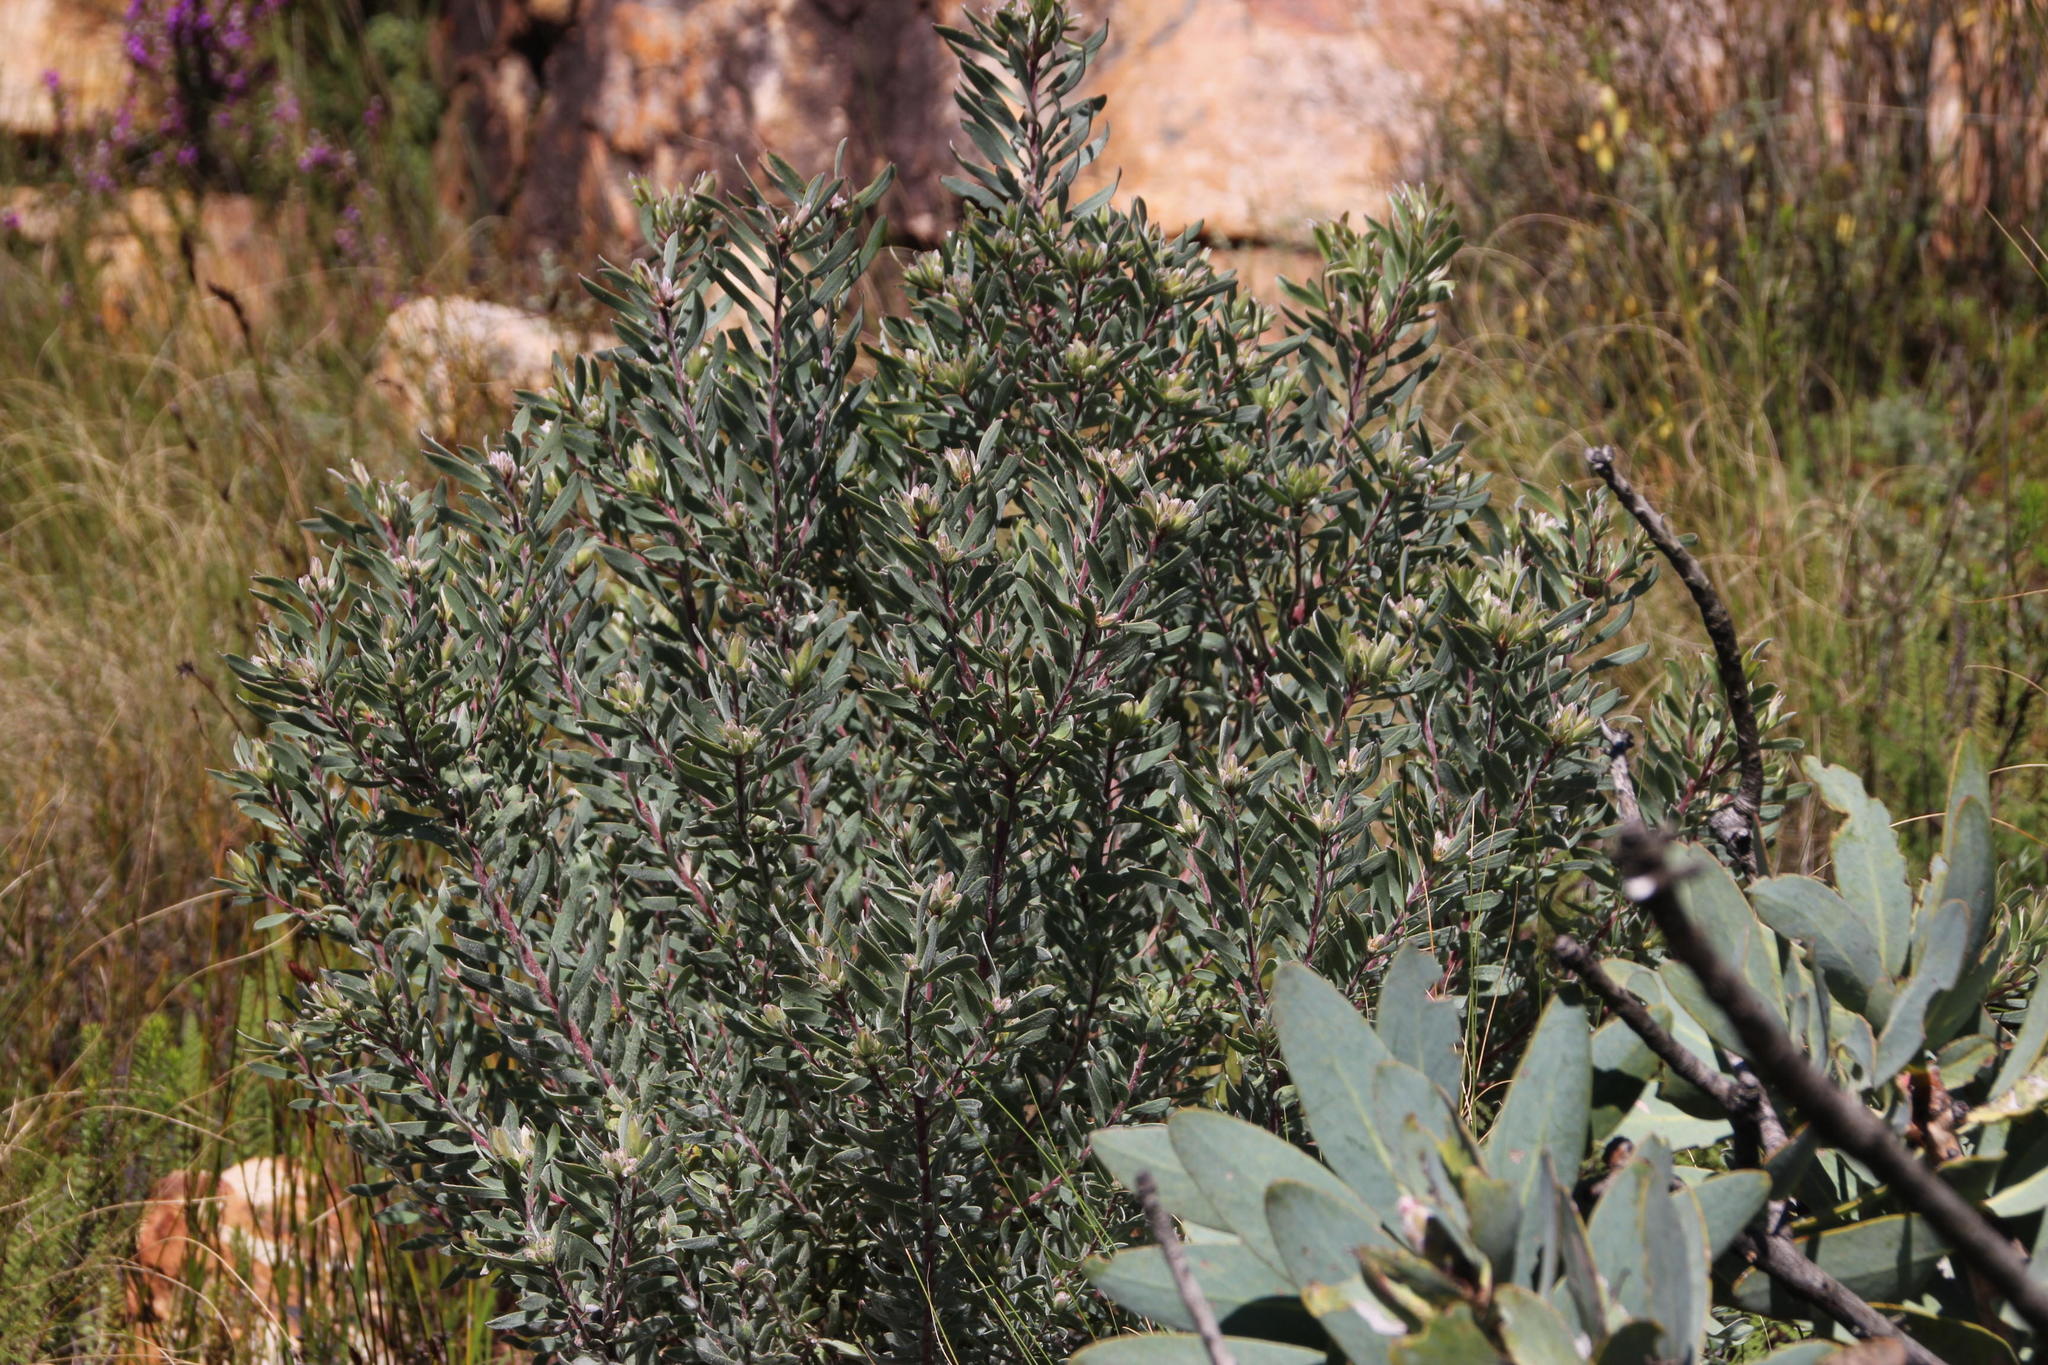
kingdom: Plantae
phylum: Tracheophyta
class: Magnoliopsida
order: Proteales
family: Proteaceae
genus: Leucadendron
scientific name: Leucadendron rubrum
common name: Spinning top
